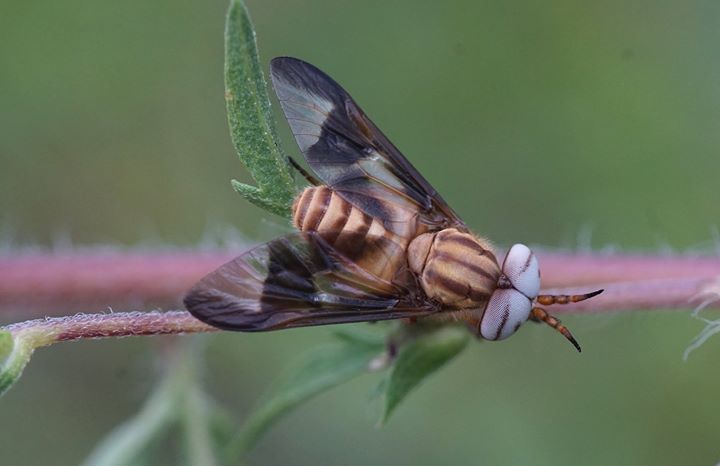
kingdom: Animalia
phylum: Arthropoda
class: Insecta
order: Diptera
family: Tabanidae
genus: Chrysops
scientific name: Chrysops flavidus
